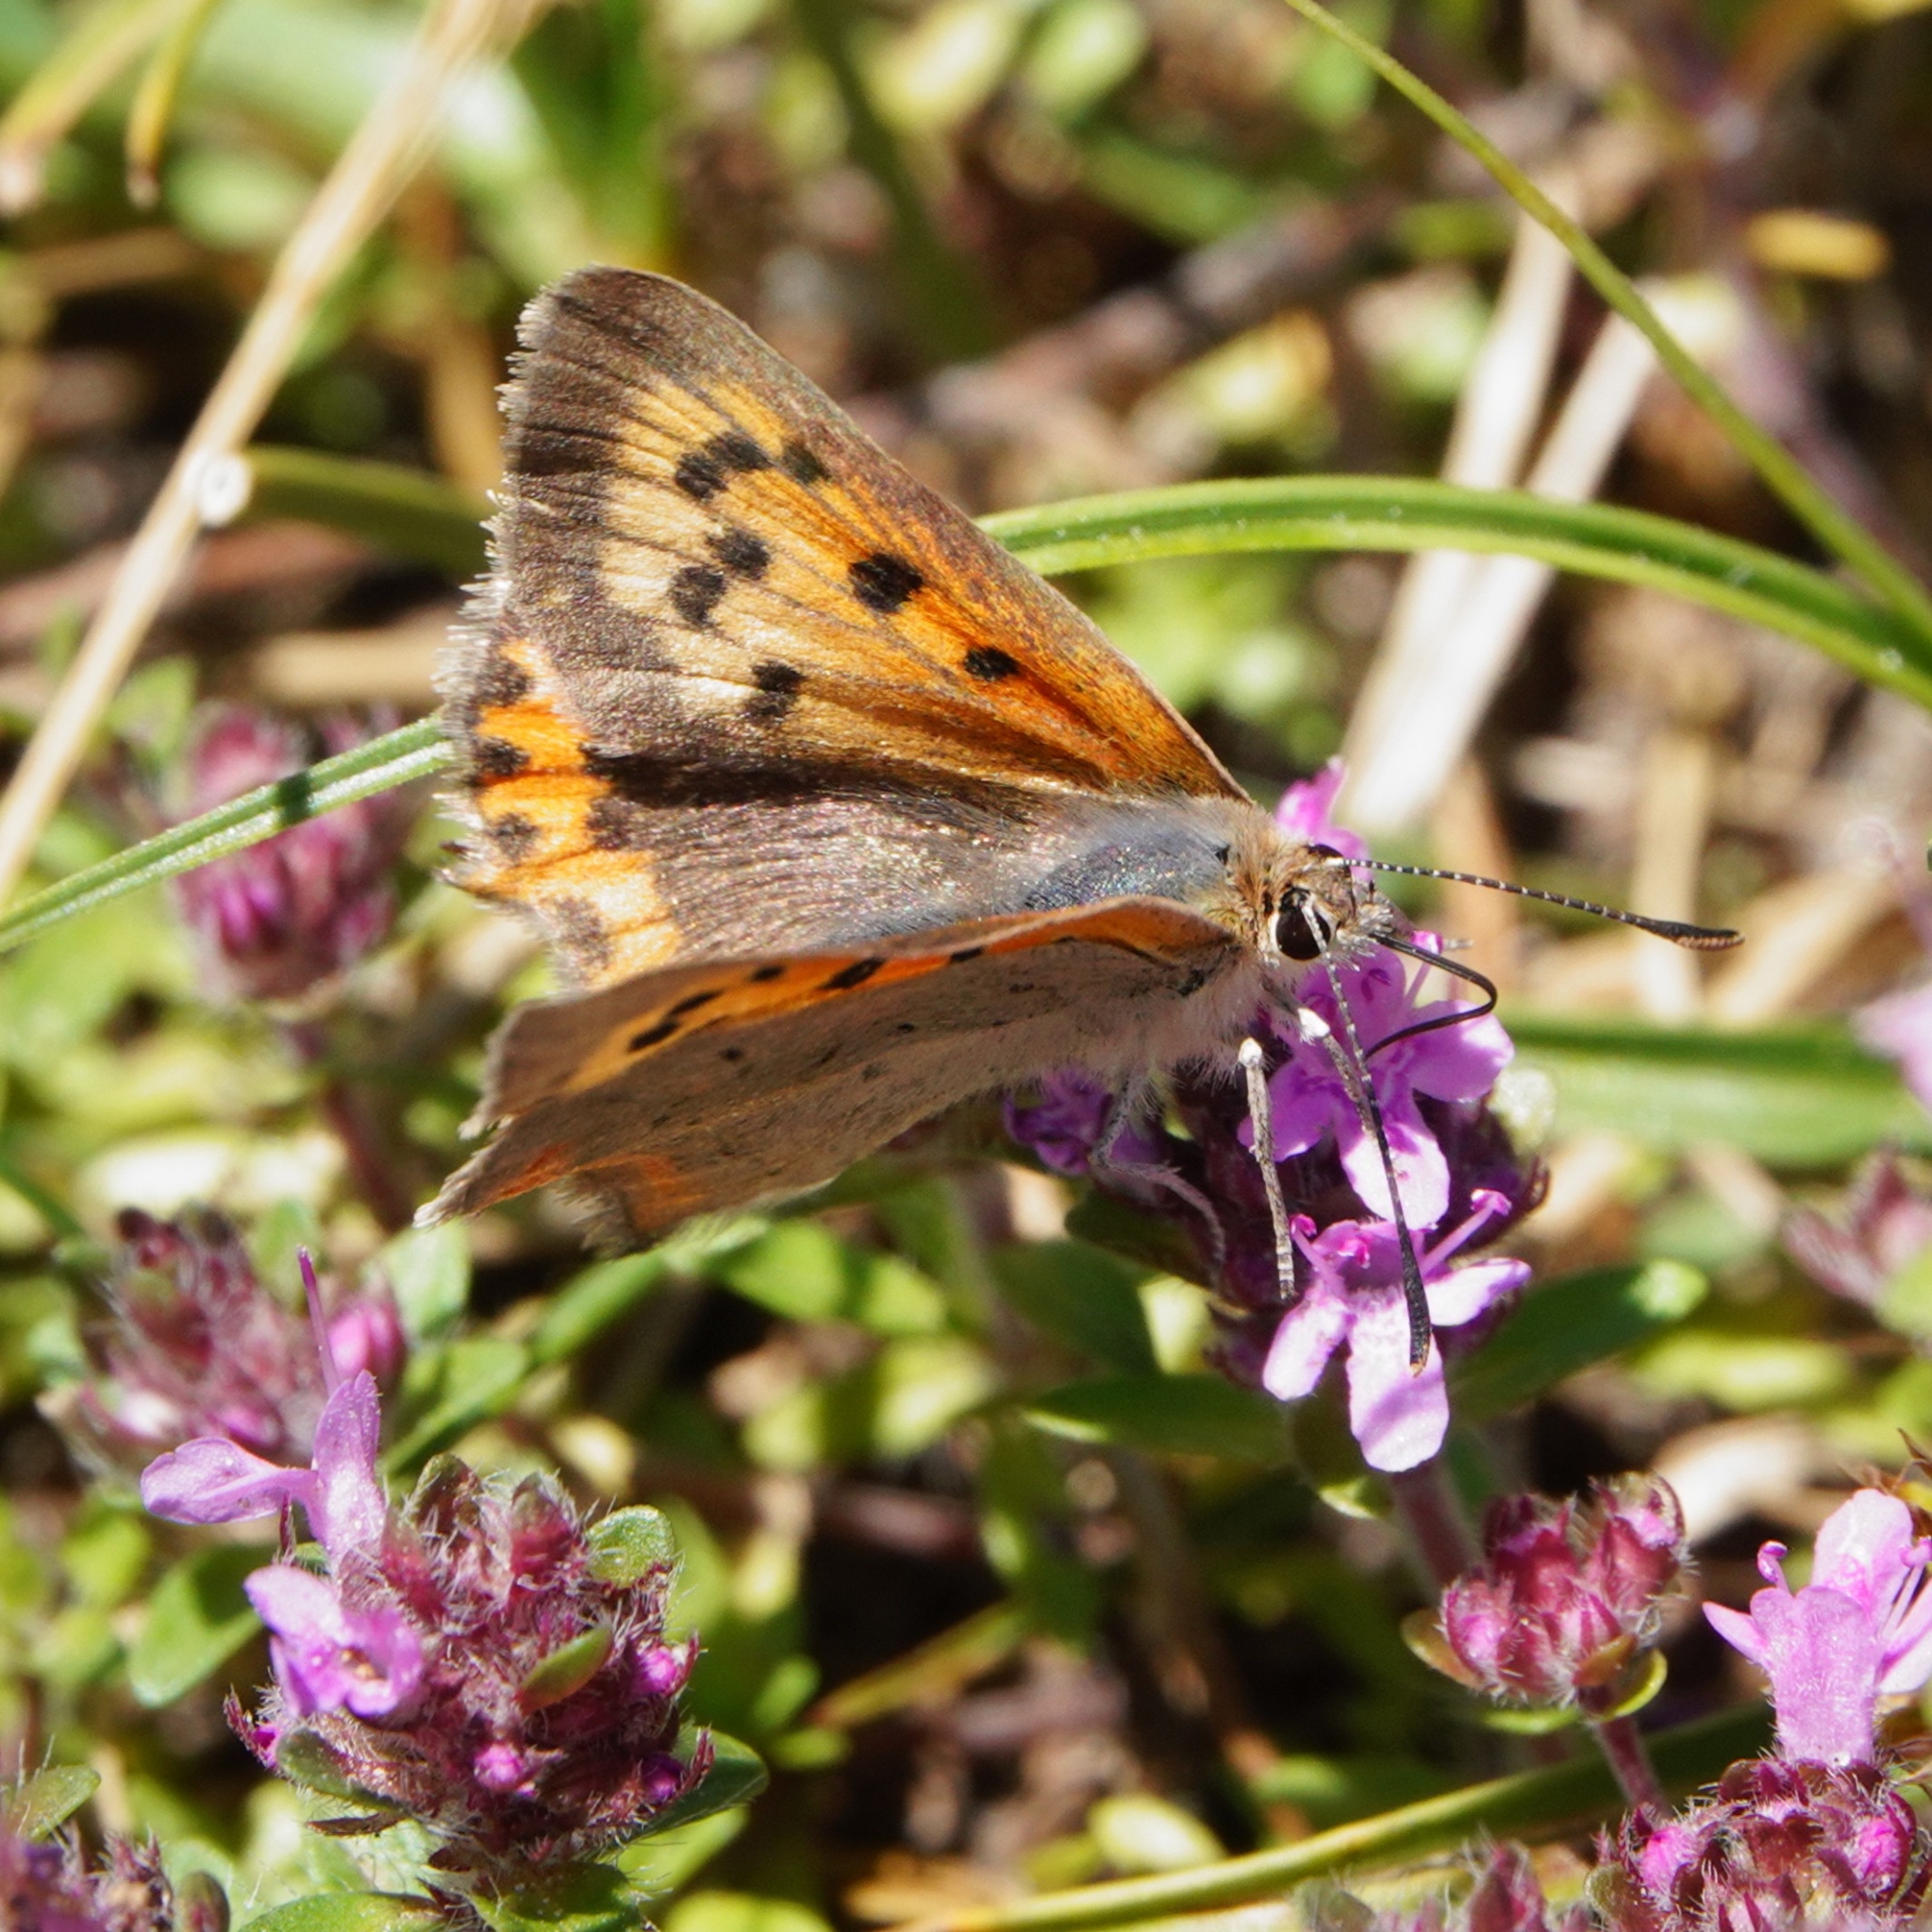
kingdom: Animalia
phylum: Arthropoda
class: Insecta
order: Lepidoptera
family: Lycaenidae
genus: Lycaena
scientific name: Lycaena phlaeas
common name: Small copper
